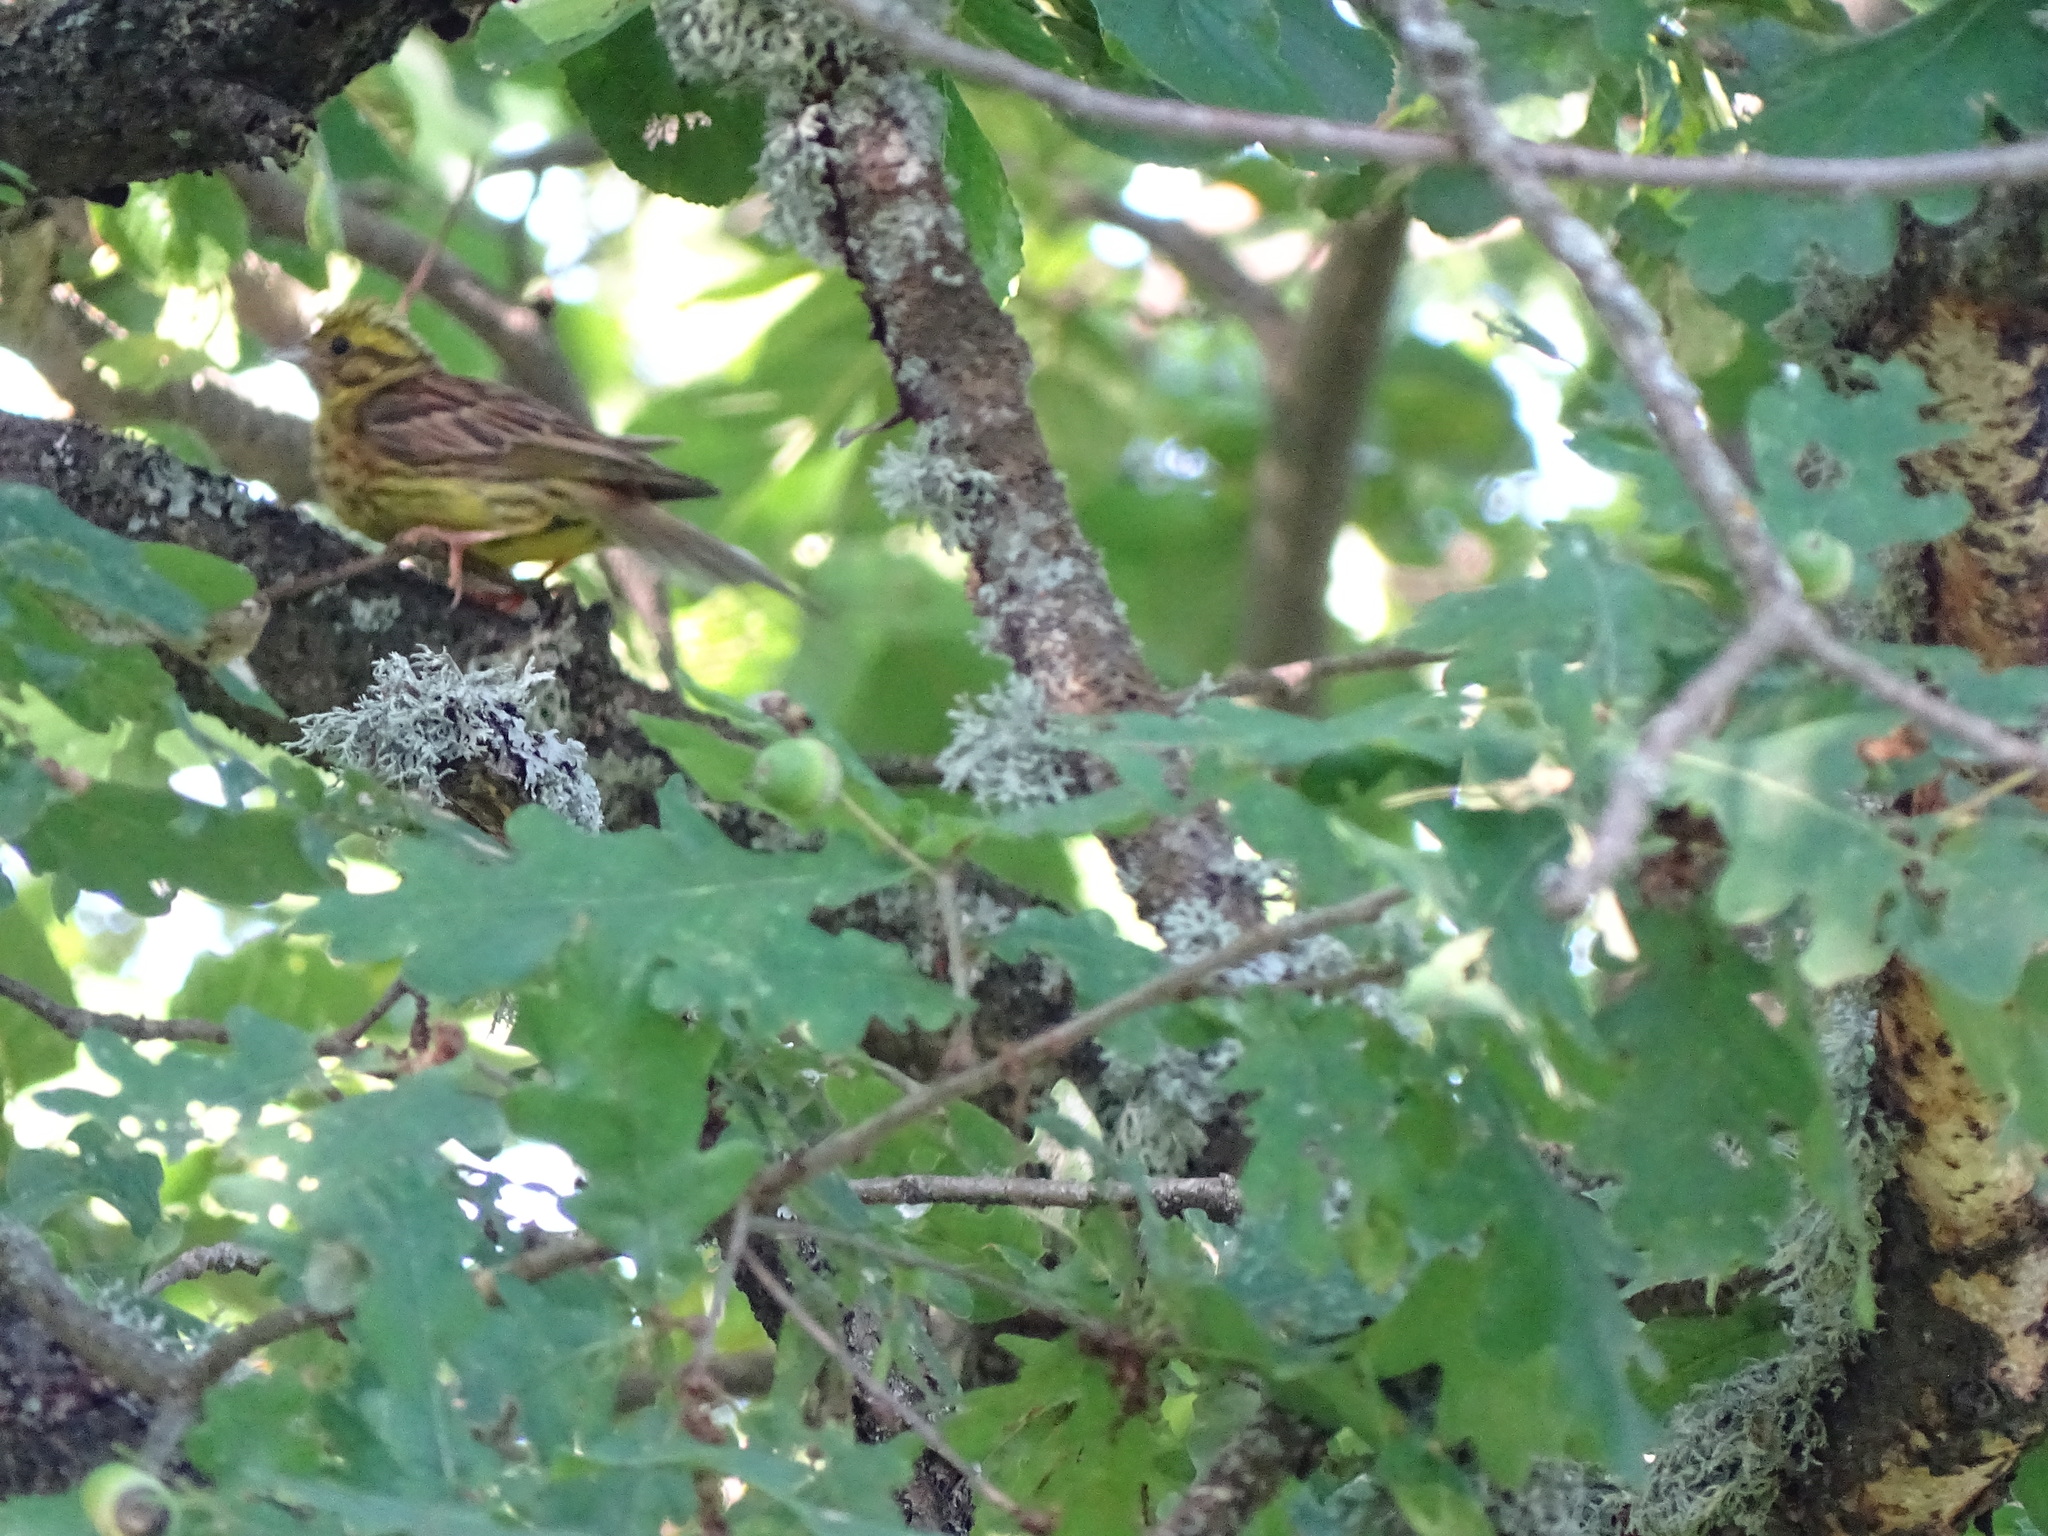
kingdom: Animalia
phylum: Chordata
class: Aves
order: Passeriformes
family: Emberizidae
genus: Emberiza
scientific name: Emberiza citrinella
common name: Yellowhammer
